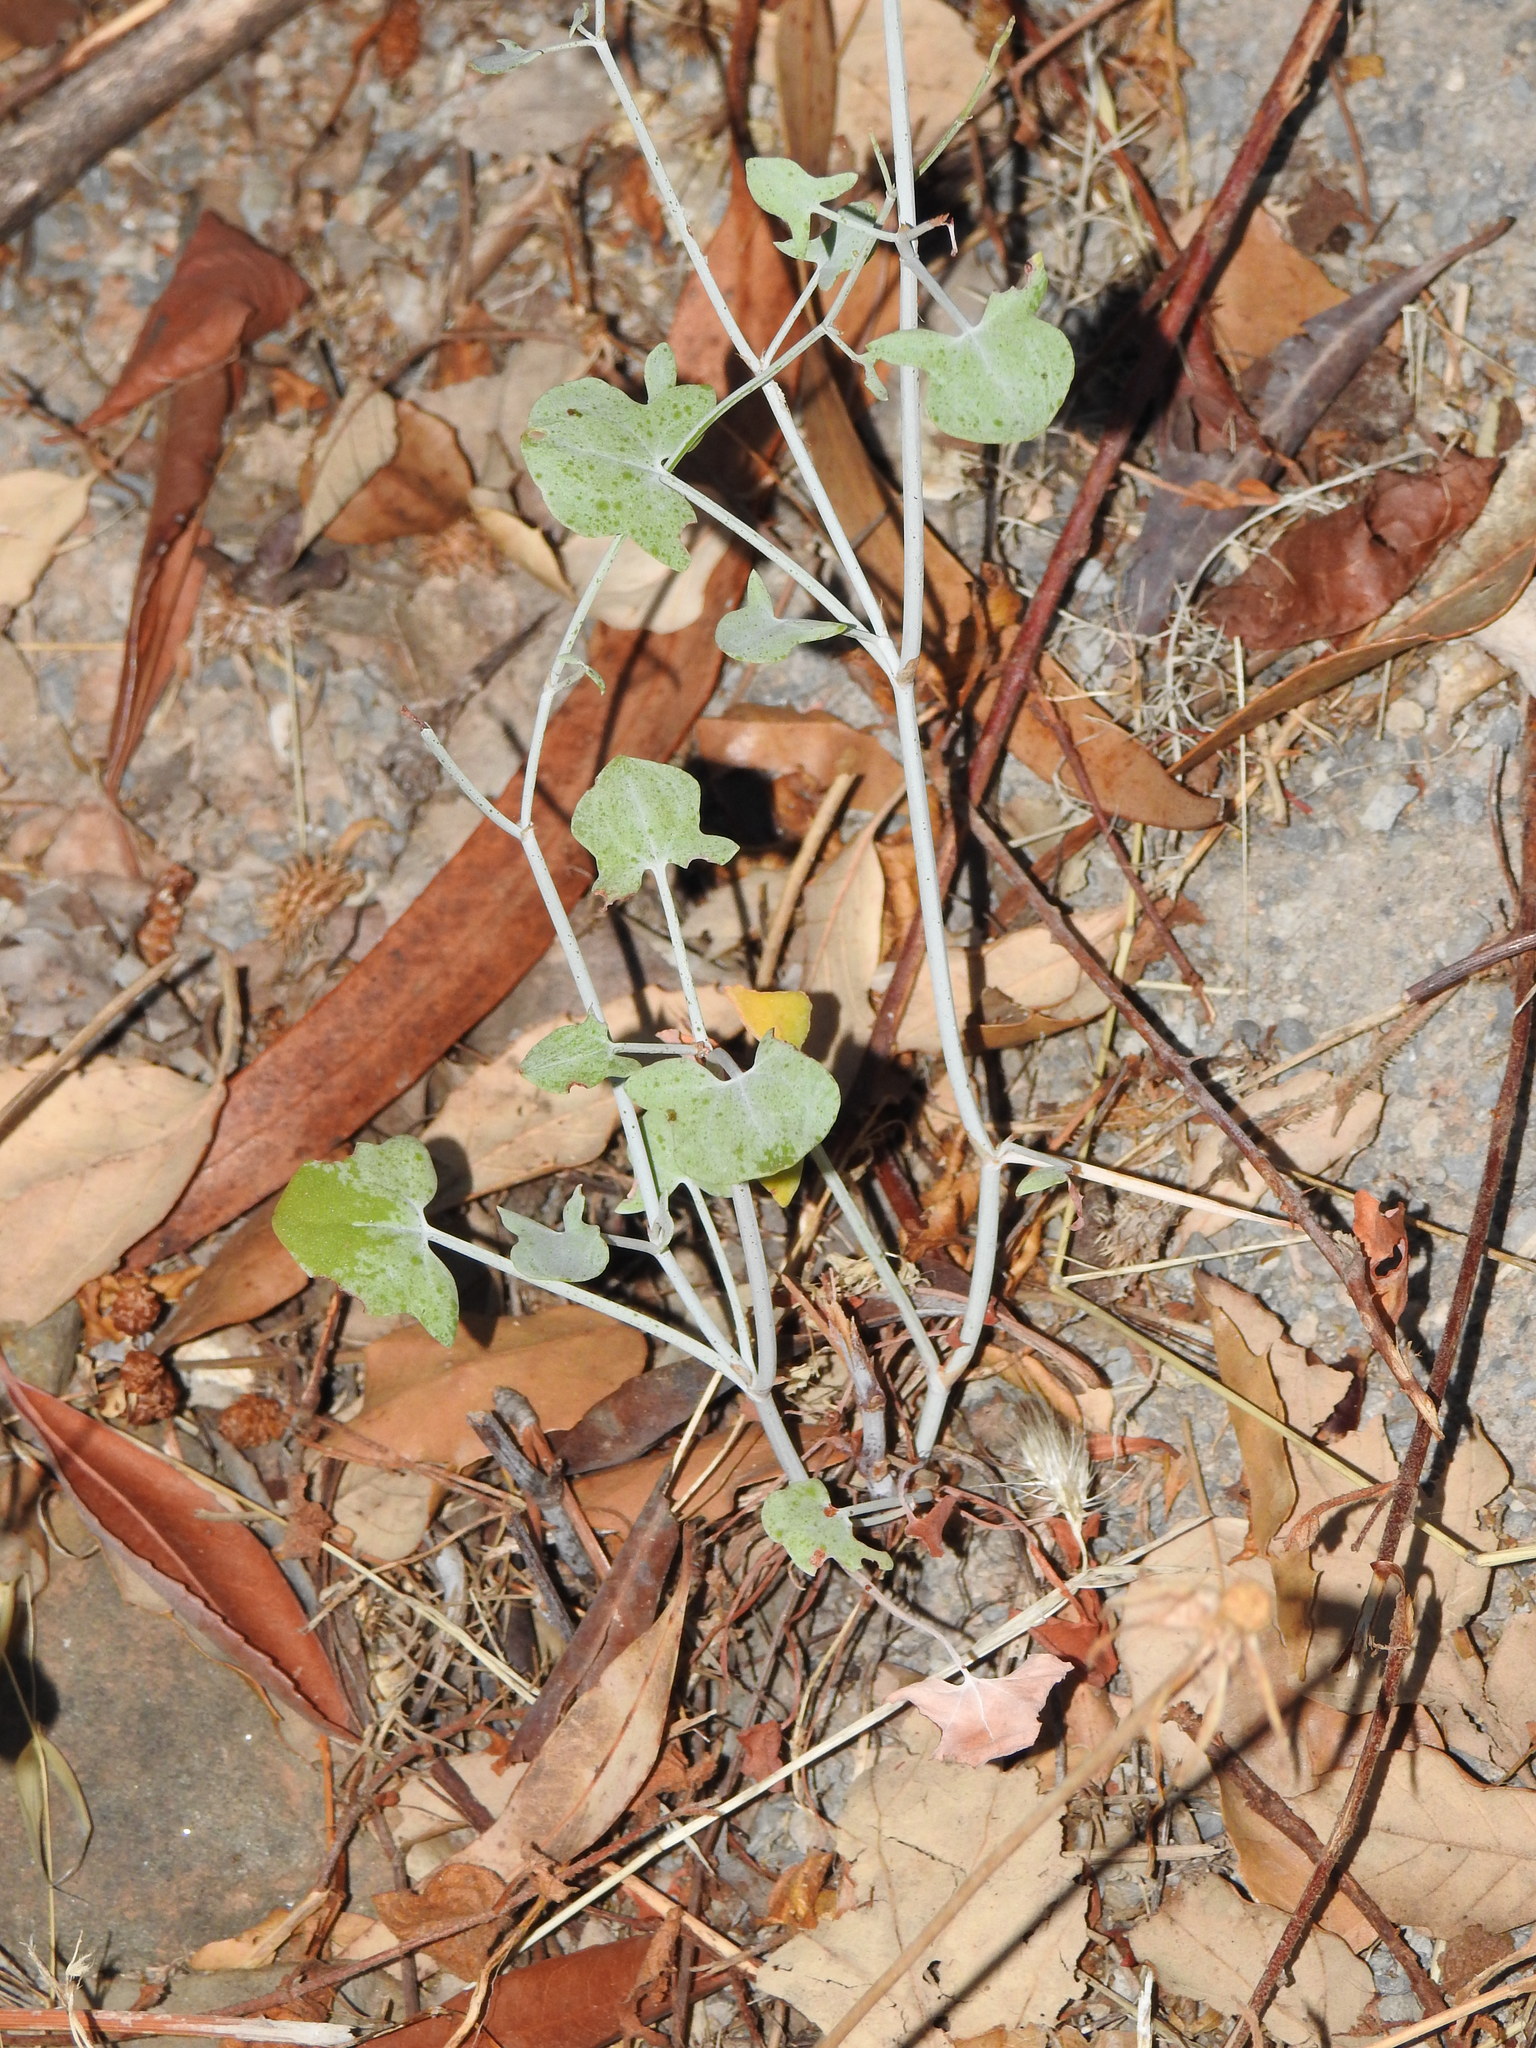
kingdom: Plantae
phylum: Tracheophyta
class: Magnoliopsida
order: Caryophyllales
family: Polygonaceae
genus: Rumex
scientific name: Rumex induratus
